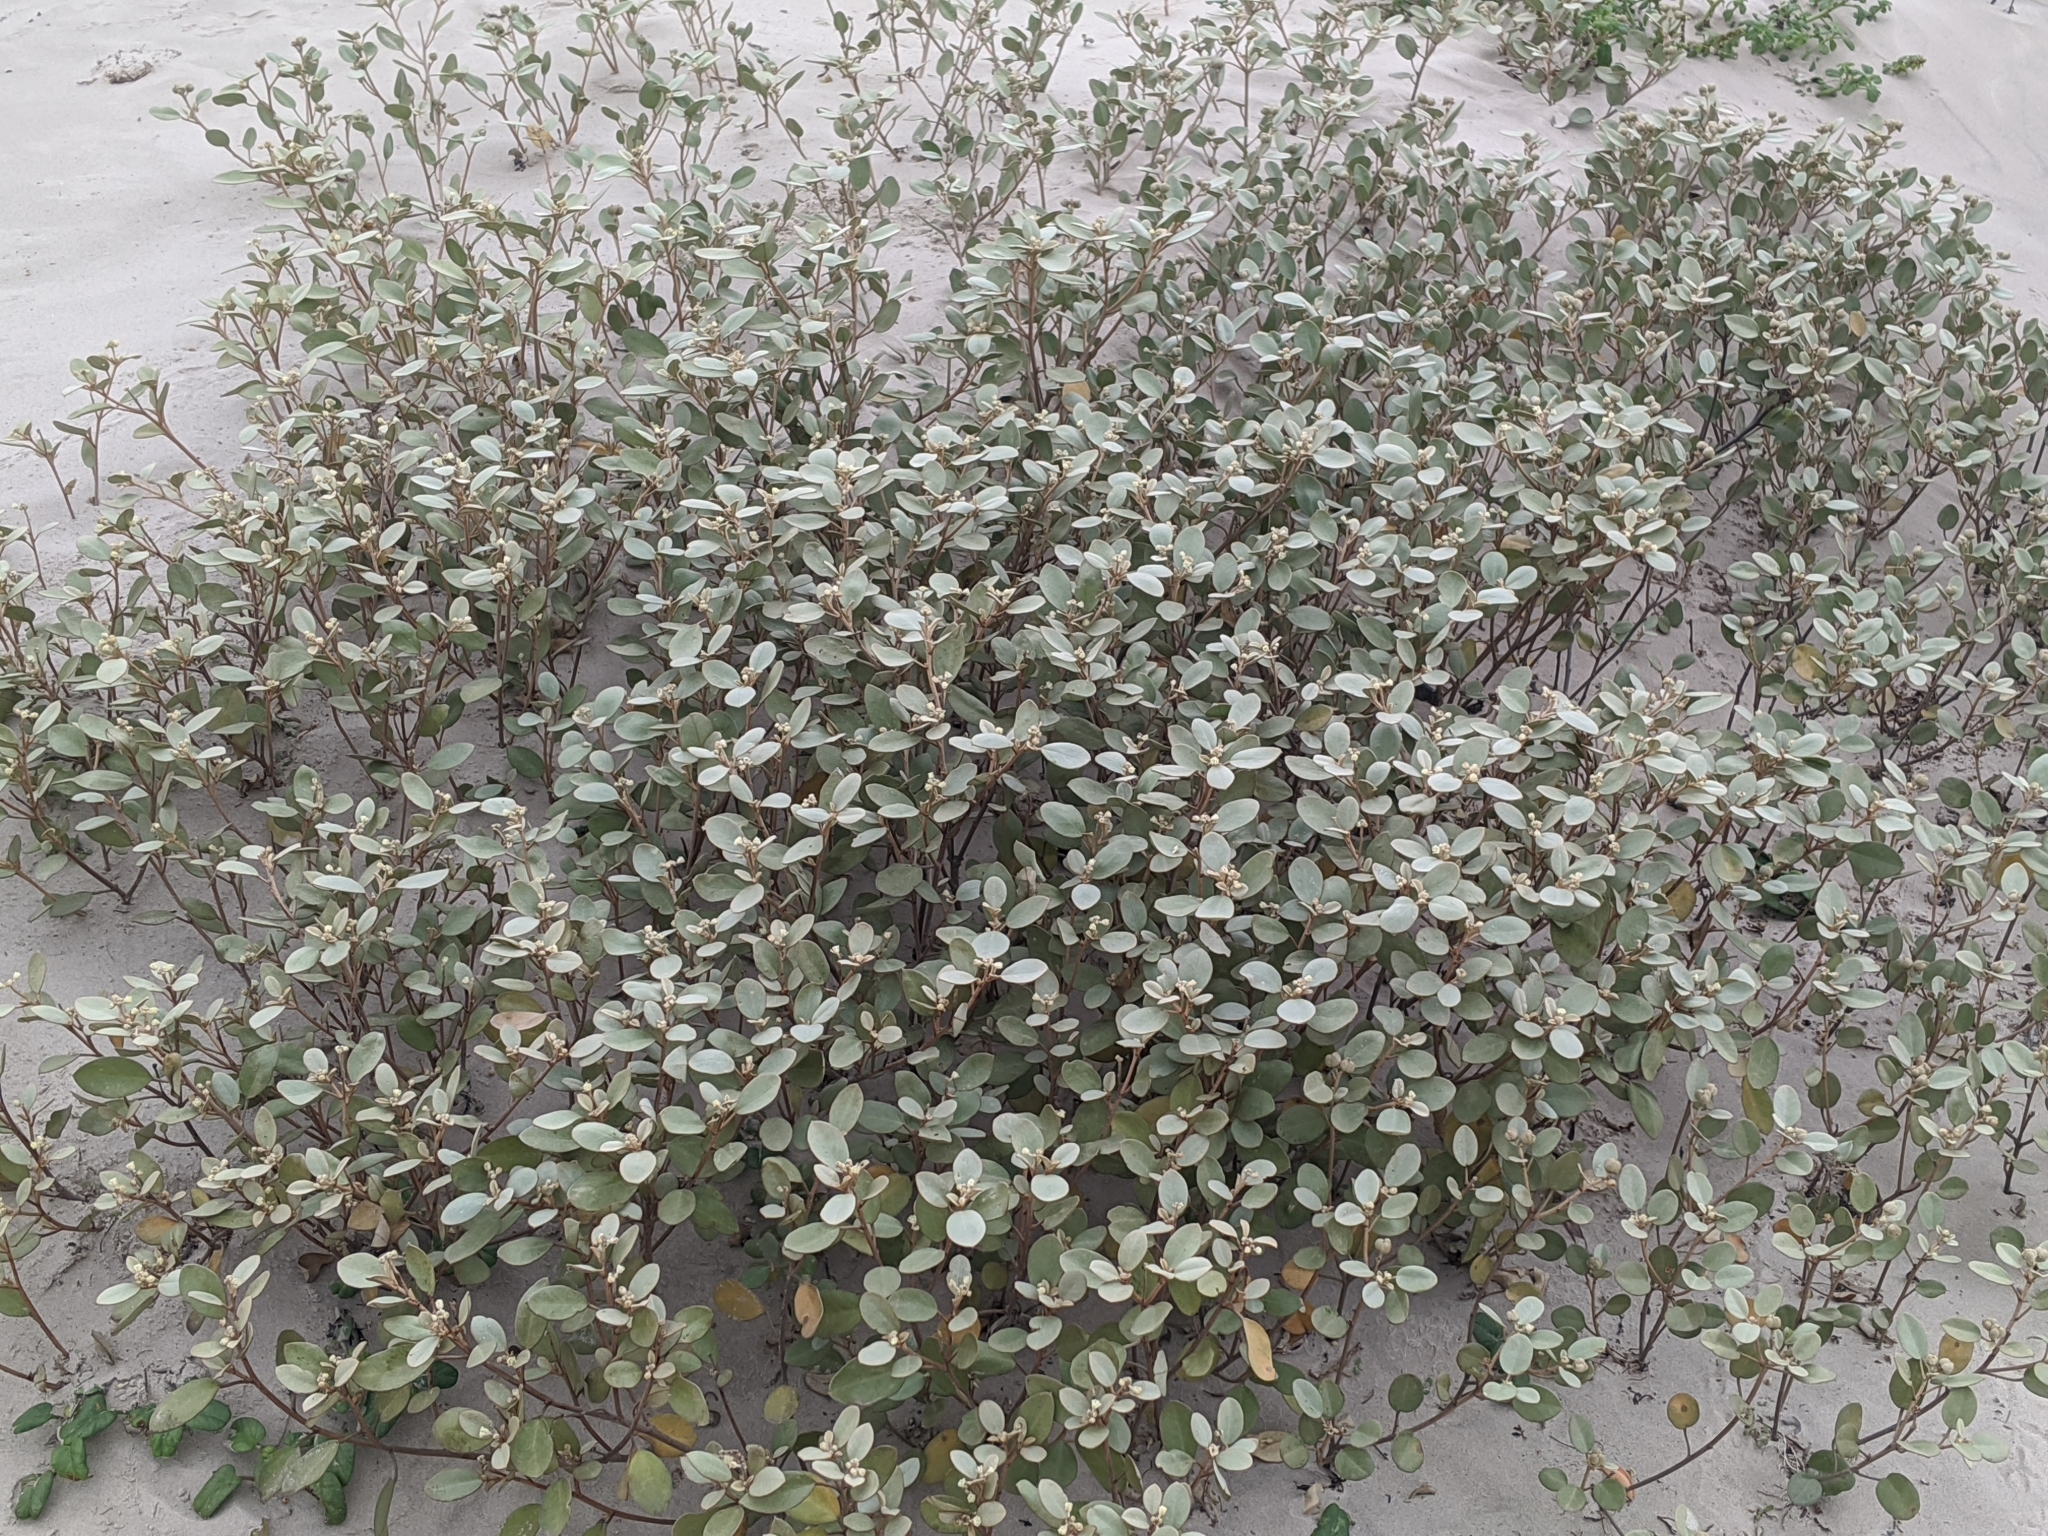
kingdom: Plantae
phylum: Tracheophyta
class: Magnoliopsida
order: Malpighiales
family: Euphorbiaceae
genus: Croton
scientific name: Croton punctatus
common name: Beach-tea
